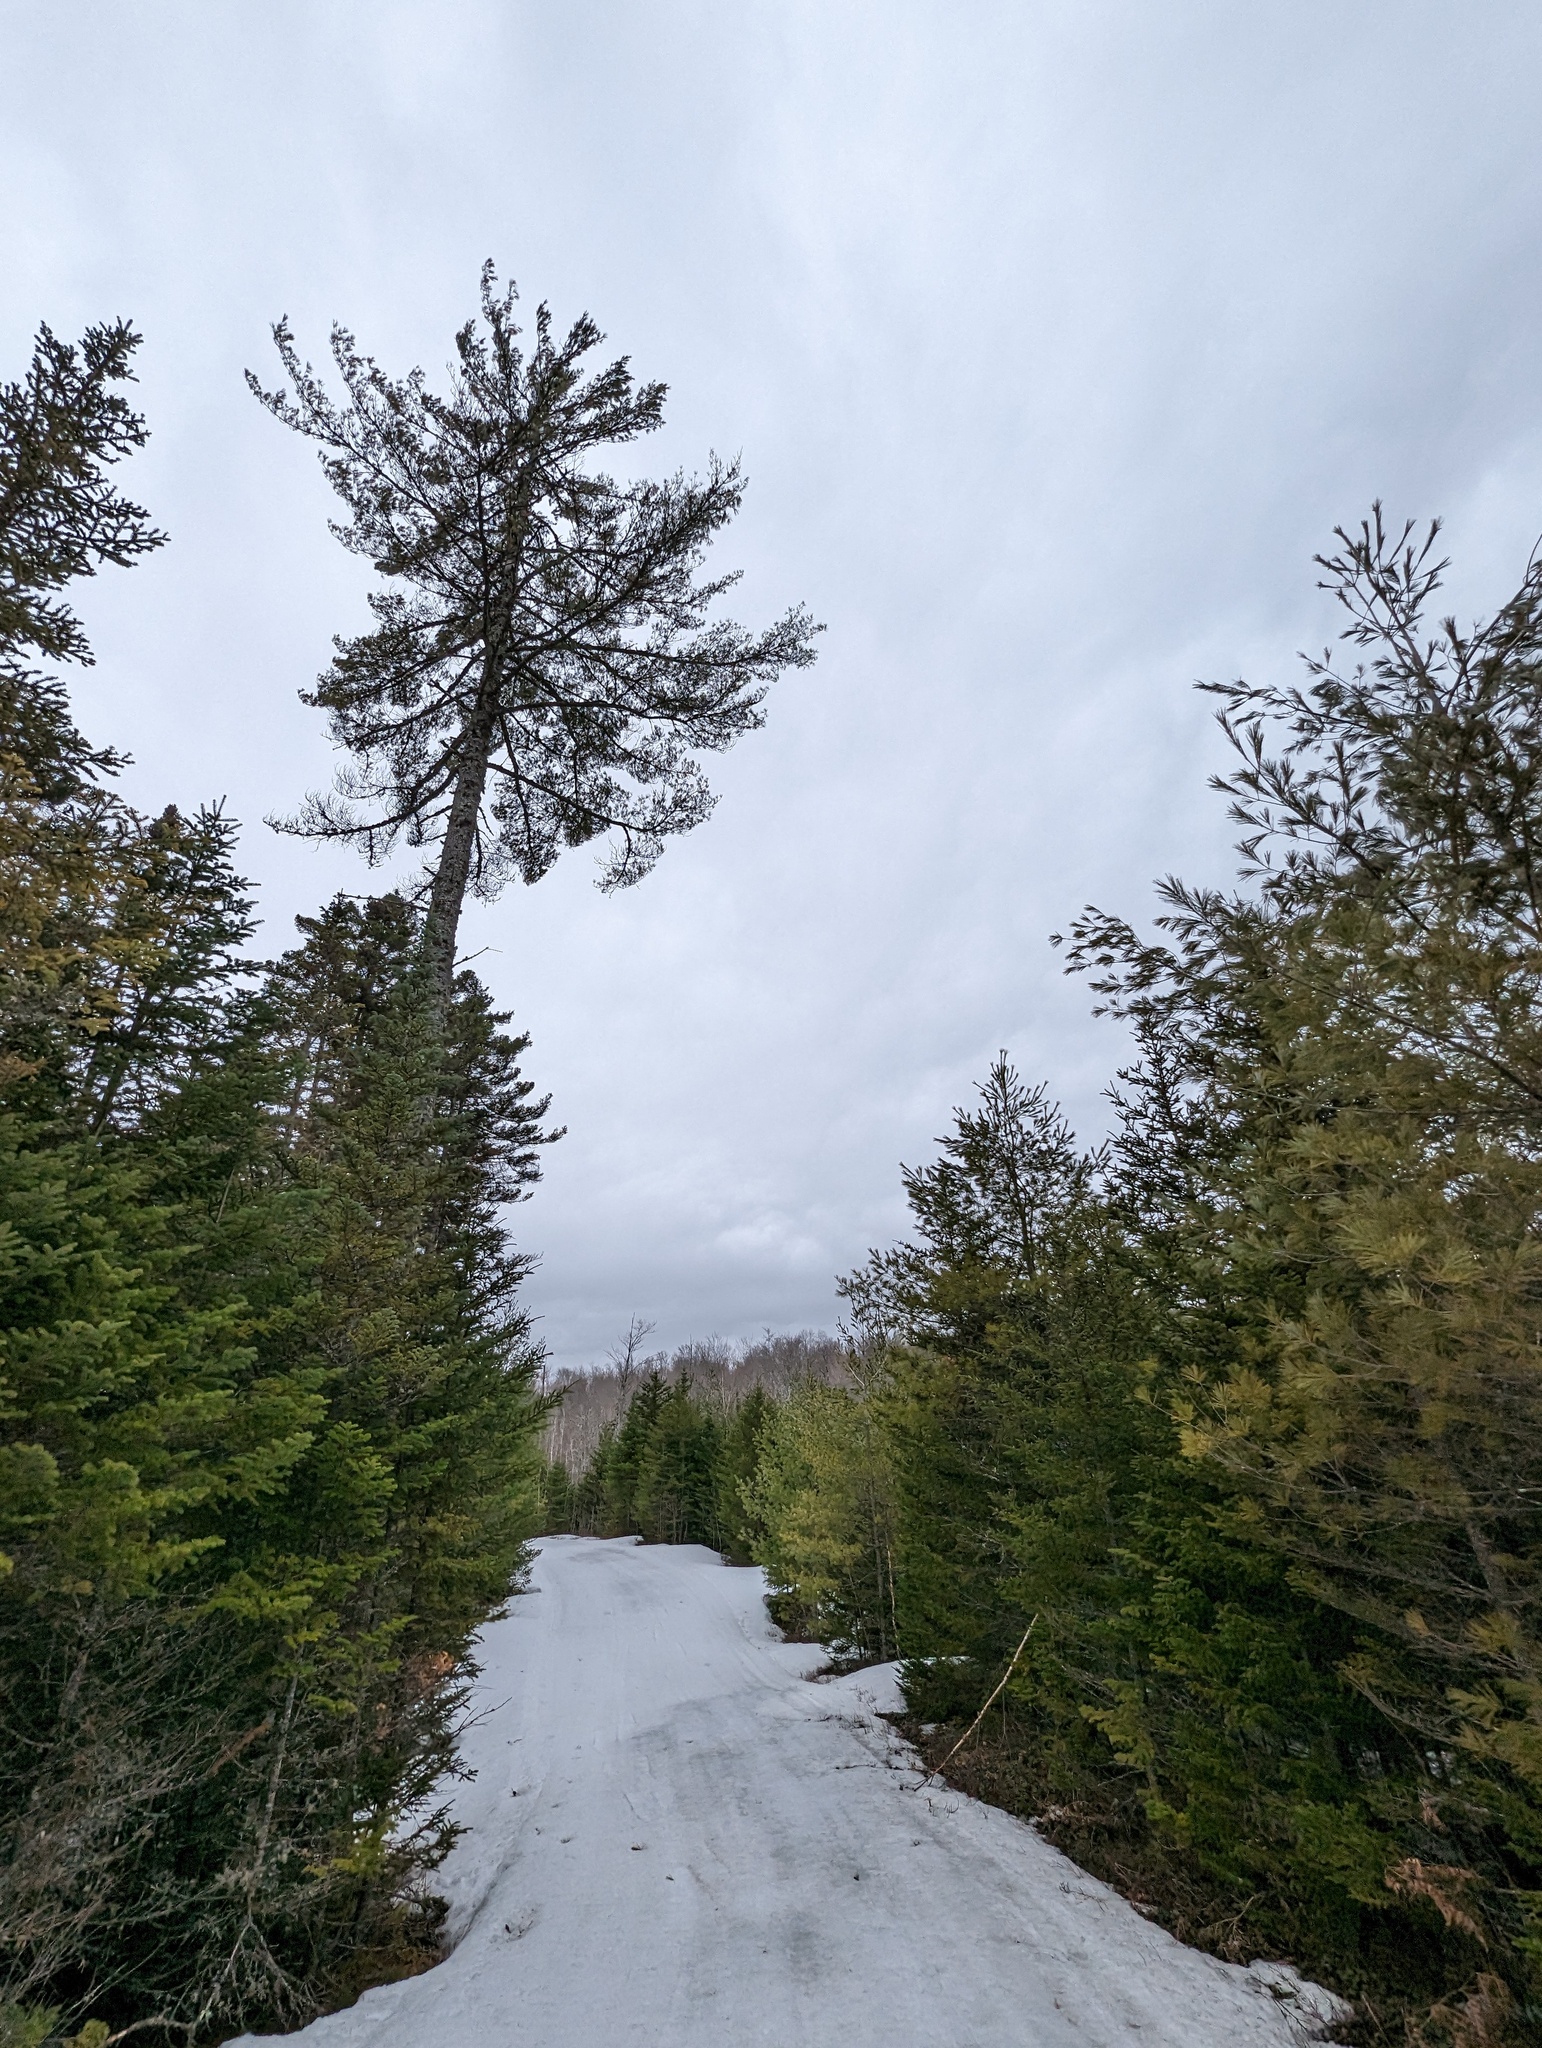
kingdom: Plantae
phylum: Tracheophyta
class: Pinopsida
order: Pinales
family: Pinaceae
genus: Pinus
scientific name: Pinus strobus
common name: Weymouth pine
